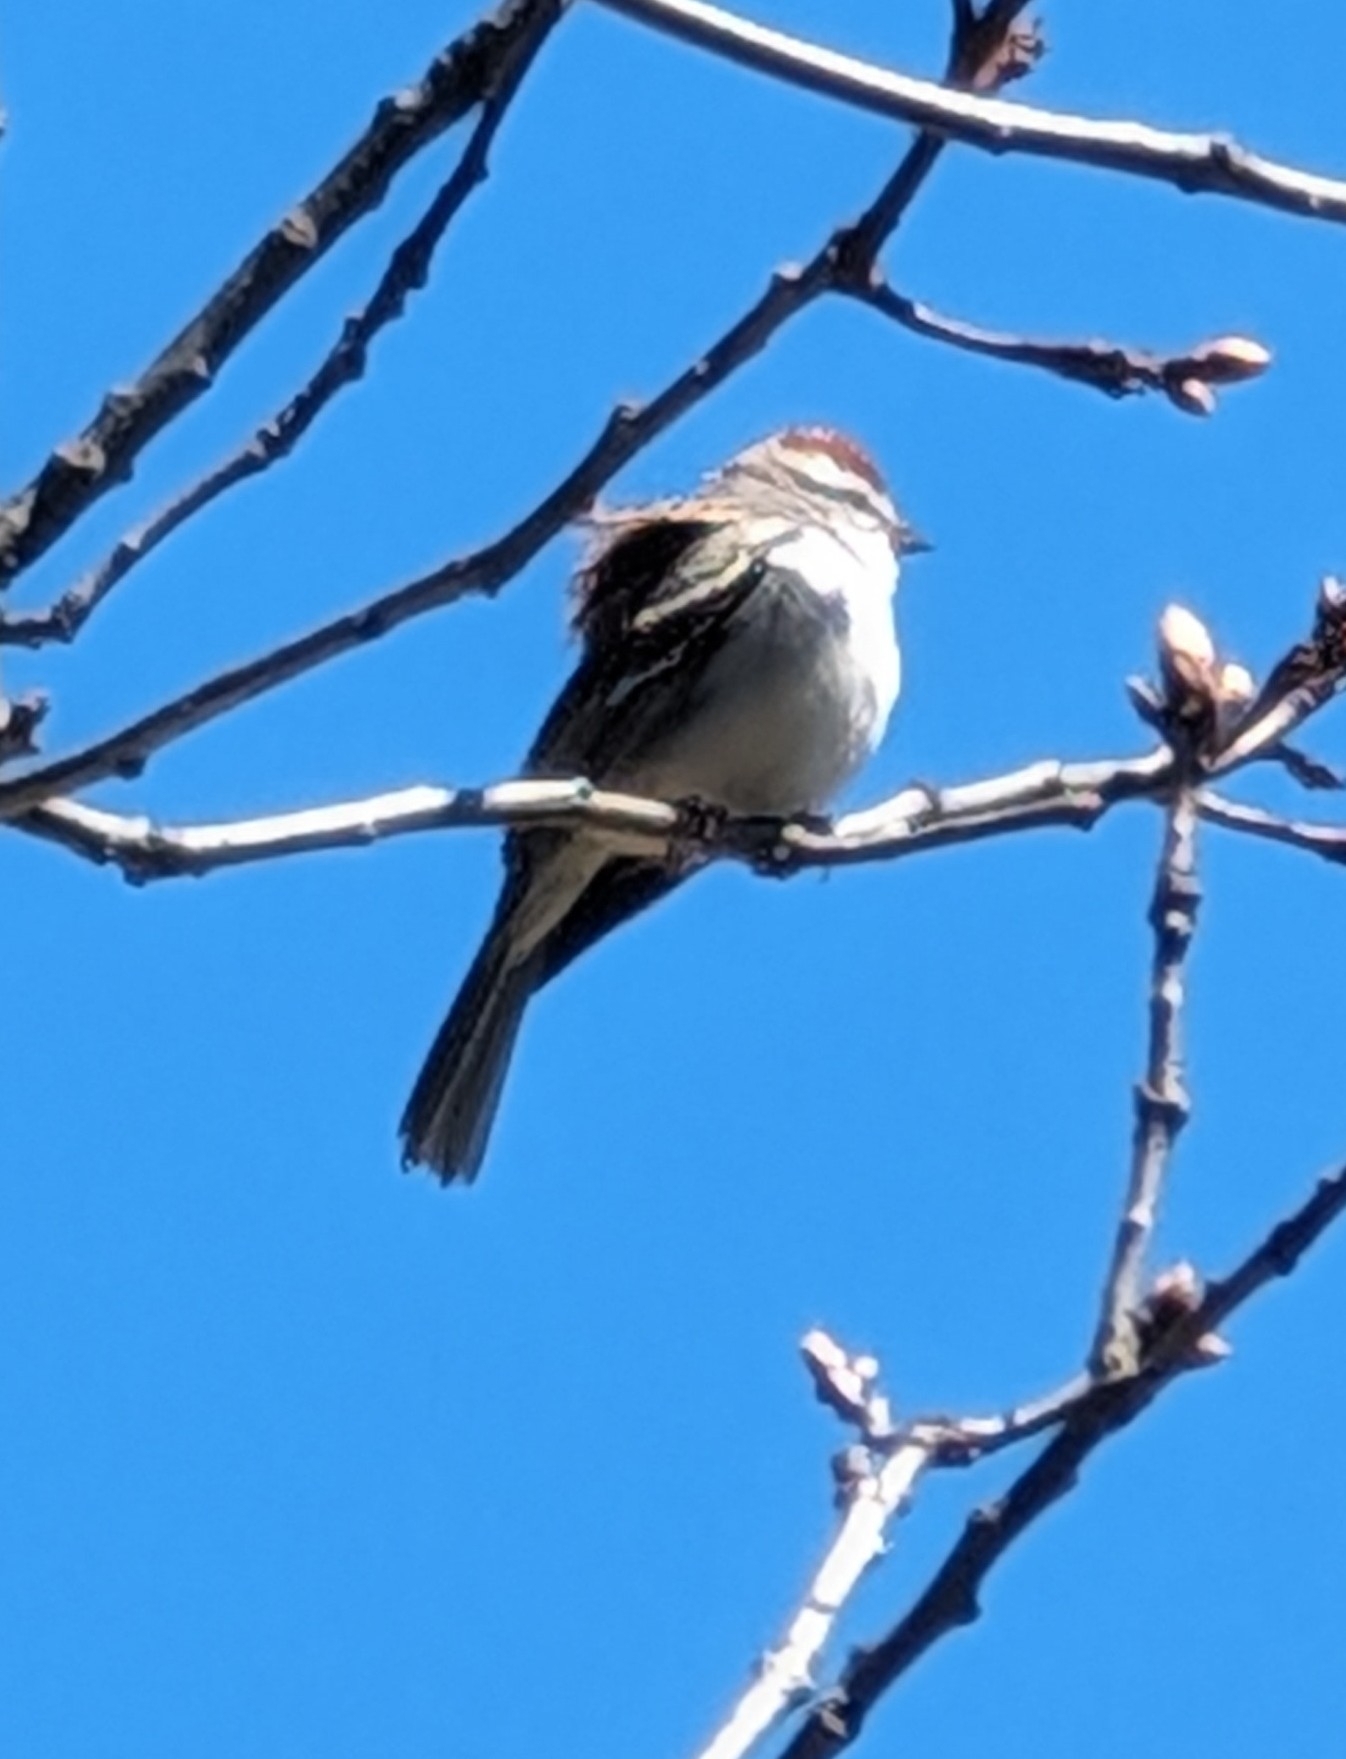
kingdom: Animalia
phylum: Chordata
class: Aves
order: Passeriformes
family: Passerellidae
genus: Spizella
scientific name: Spizella passerina
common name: Chipping sparrow
